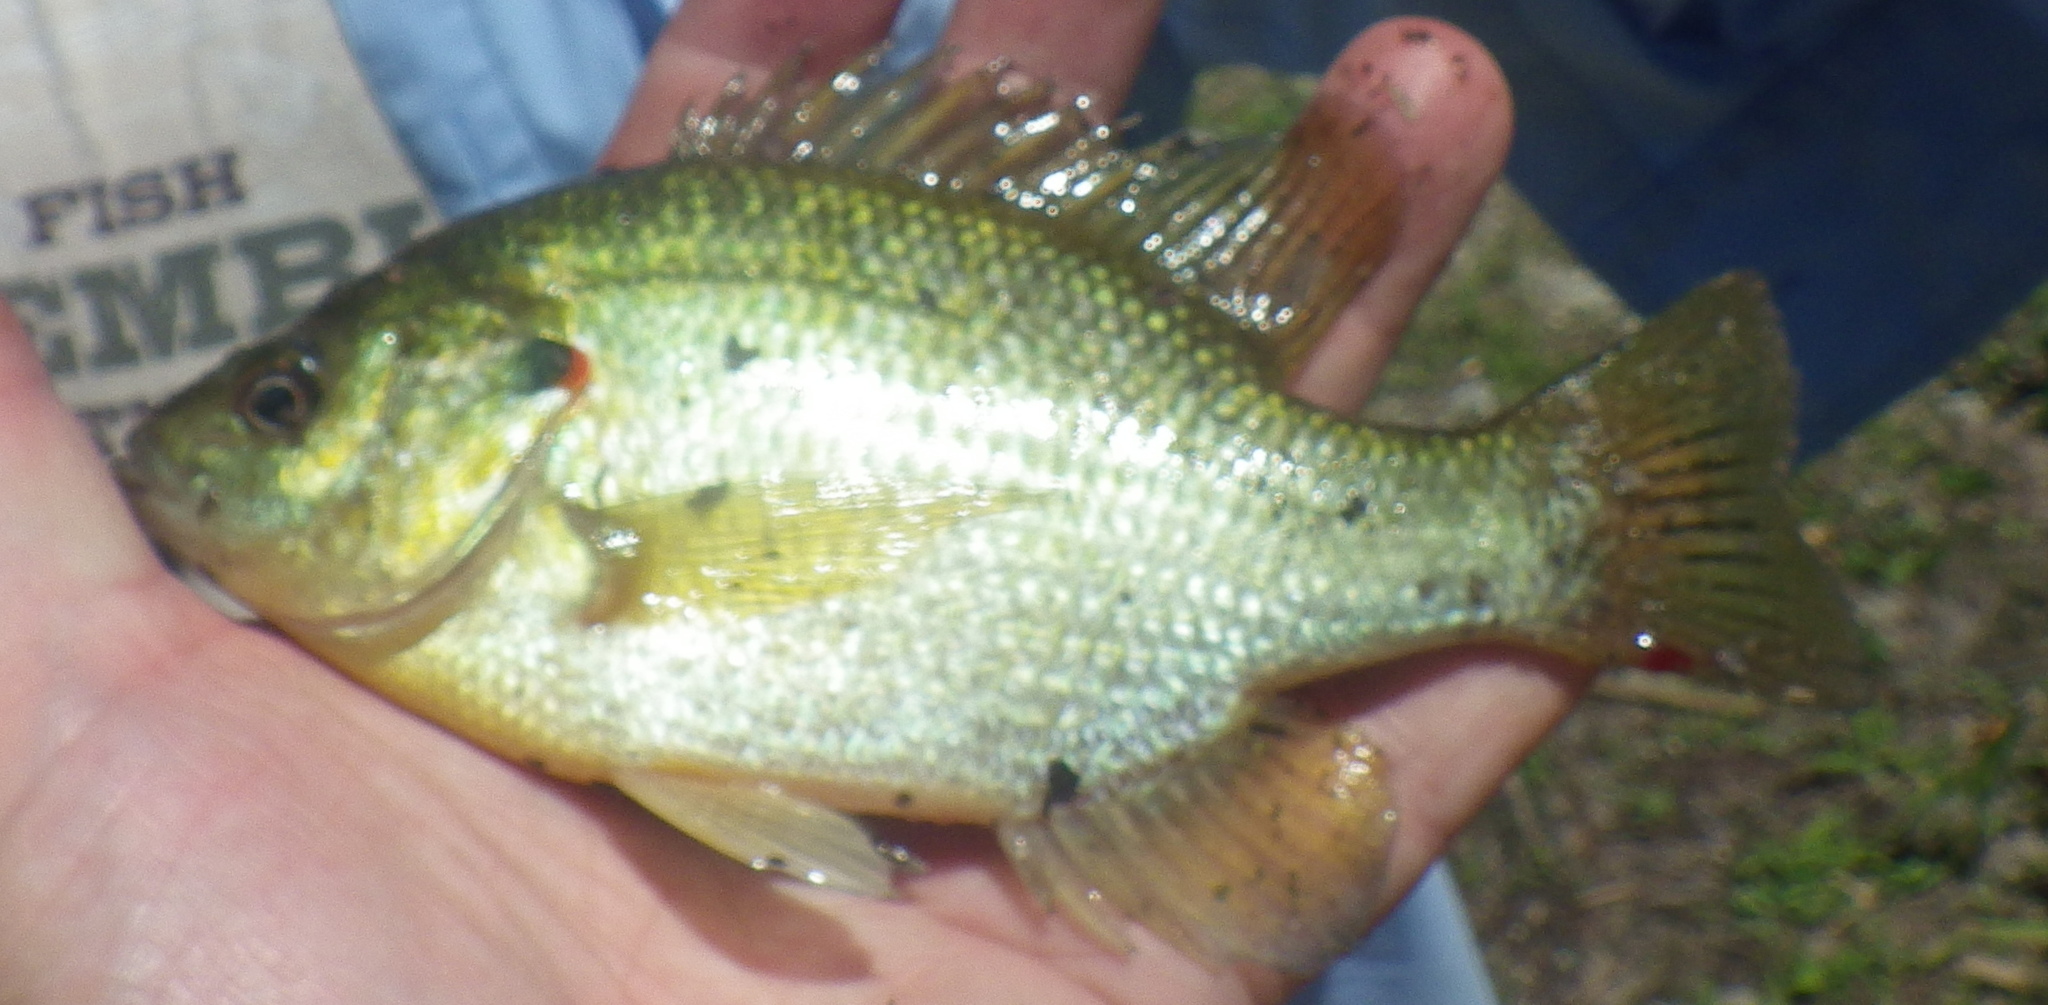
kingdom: Animalia
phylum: Chordata
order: Perciformes
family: Centrarchidae
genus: Lepomis
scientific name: Lepomis microlophus
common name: Redear sunfish
